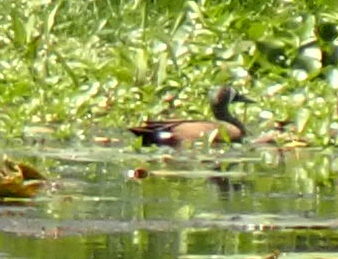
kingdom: Animalia
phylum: Chordata
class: Aves
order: Anseriformes
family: Anatidae
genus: Spatula
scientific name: Spatula discors
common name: Blue-winged teal
